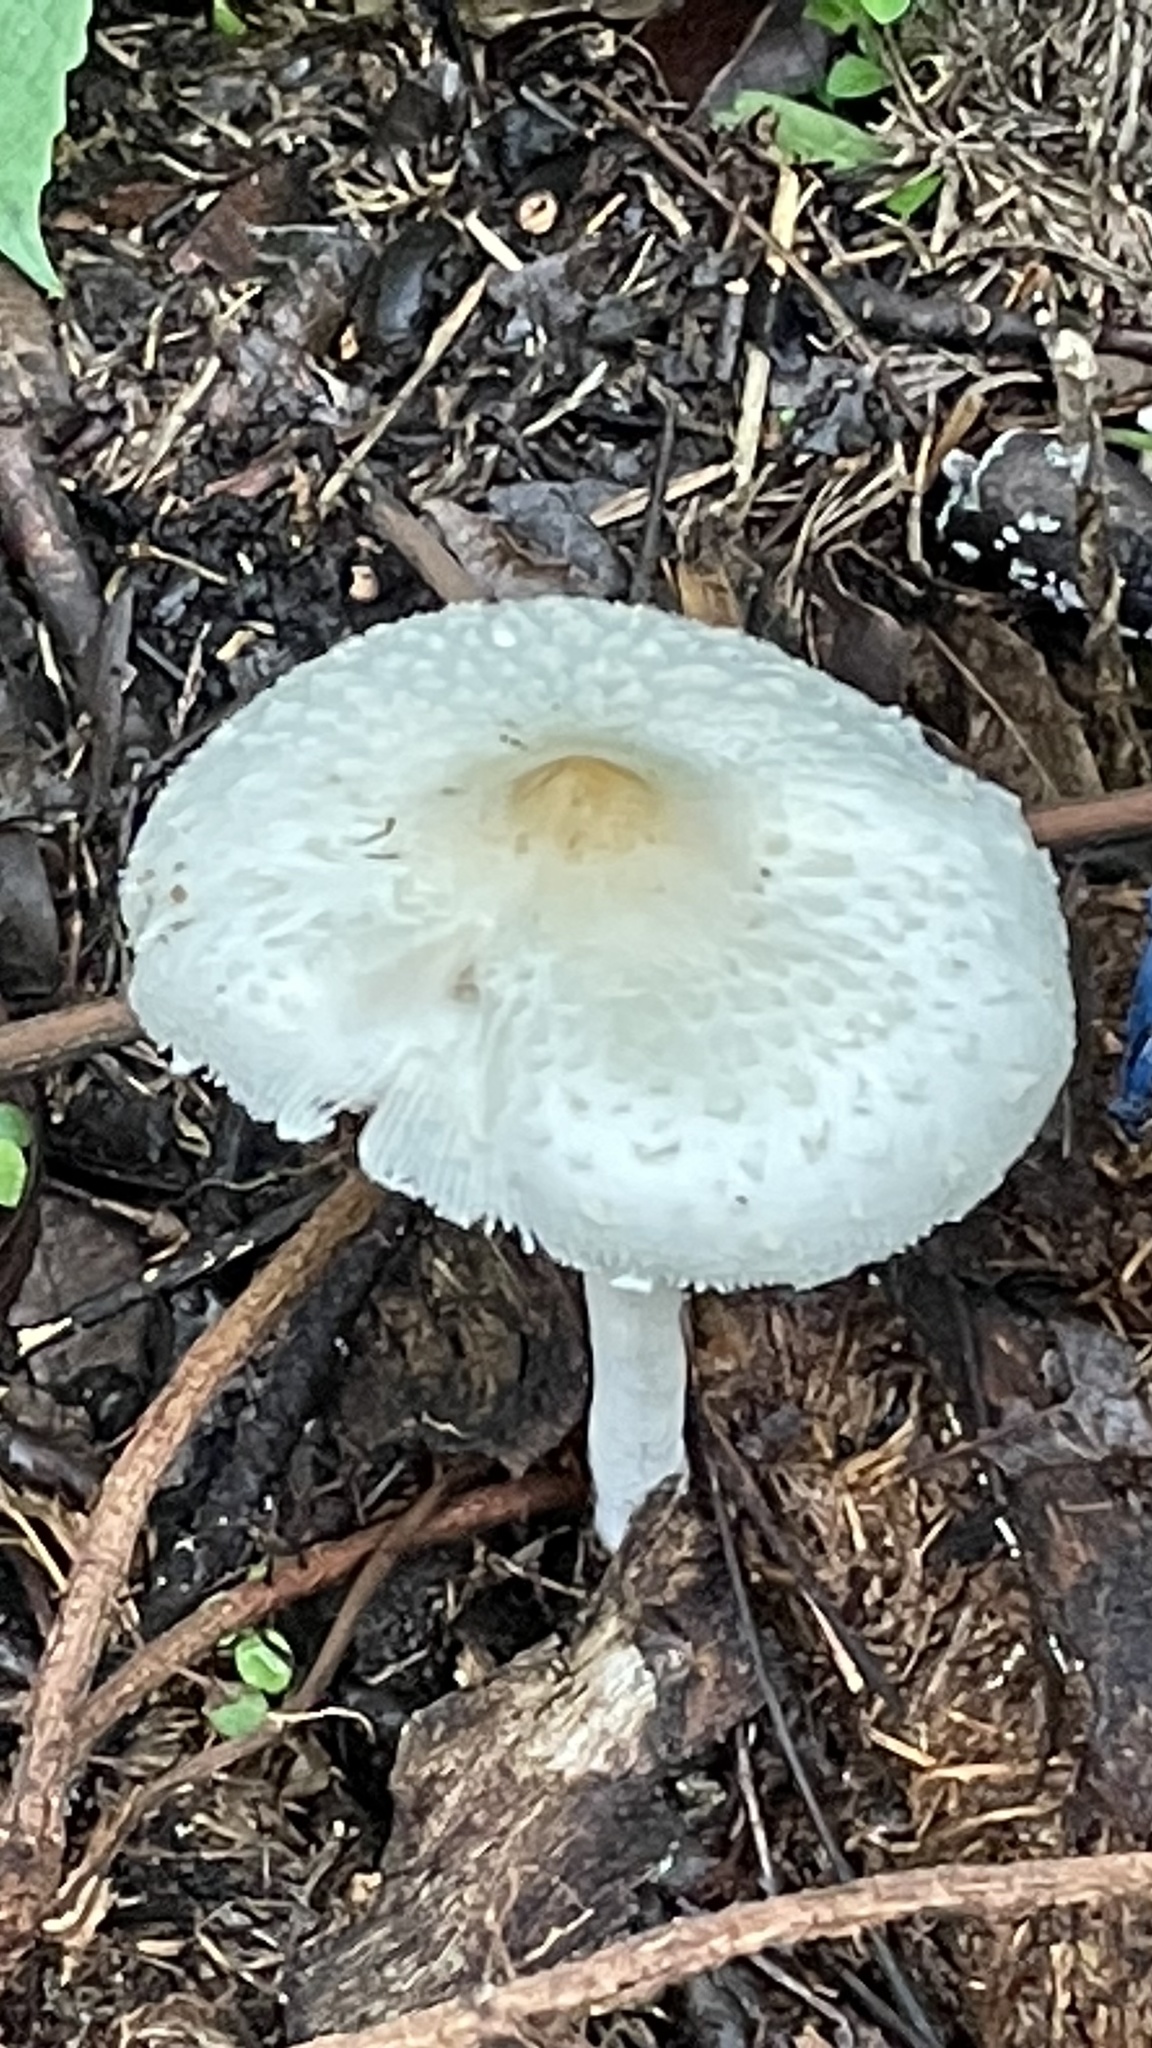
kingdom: Fungi
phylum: Basidiomycota
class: Agaricomycetes
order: Agaricales
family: Agaricaceae
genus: Lepiota
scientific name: Lepiota cristata
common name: Stinking dapperling
